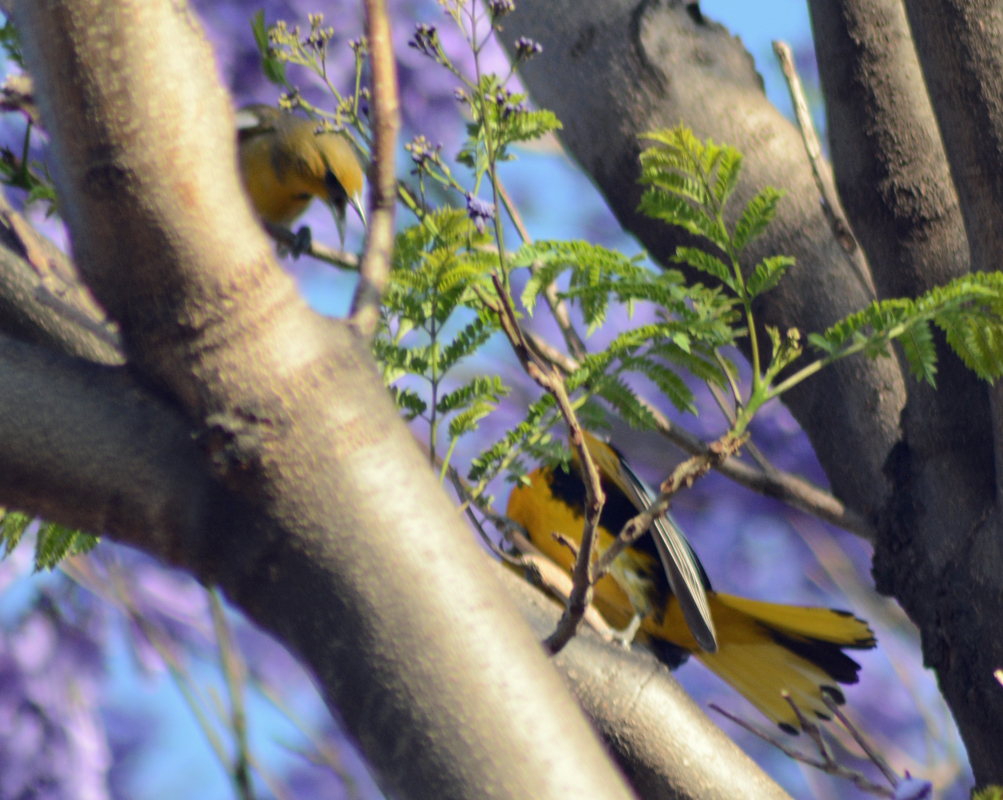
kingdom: Animalia
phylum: Chordata
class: Aves
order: Passeriformes
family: Icteridae
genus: Icterus
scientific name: Icterus abeillei
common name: Black-backed oriole
